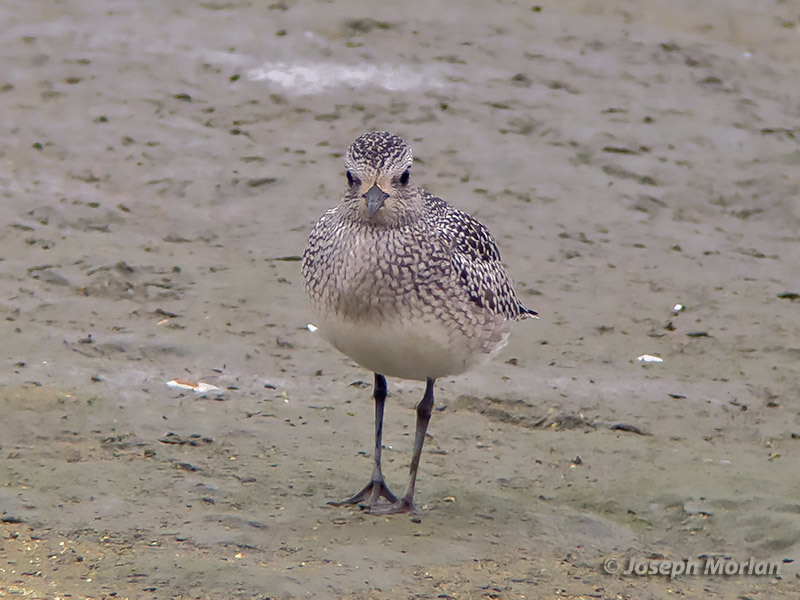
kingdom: Animalia
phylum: Chordata
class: Aves
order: Charadriiformes
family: Charadriidae
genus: Pluvialis
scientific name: Pluvialis squatarola
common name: Grey plover
